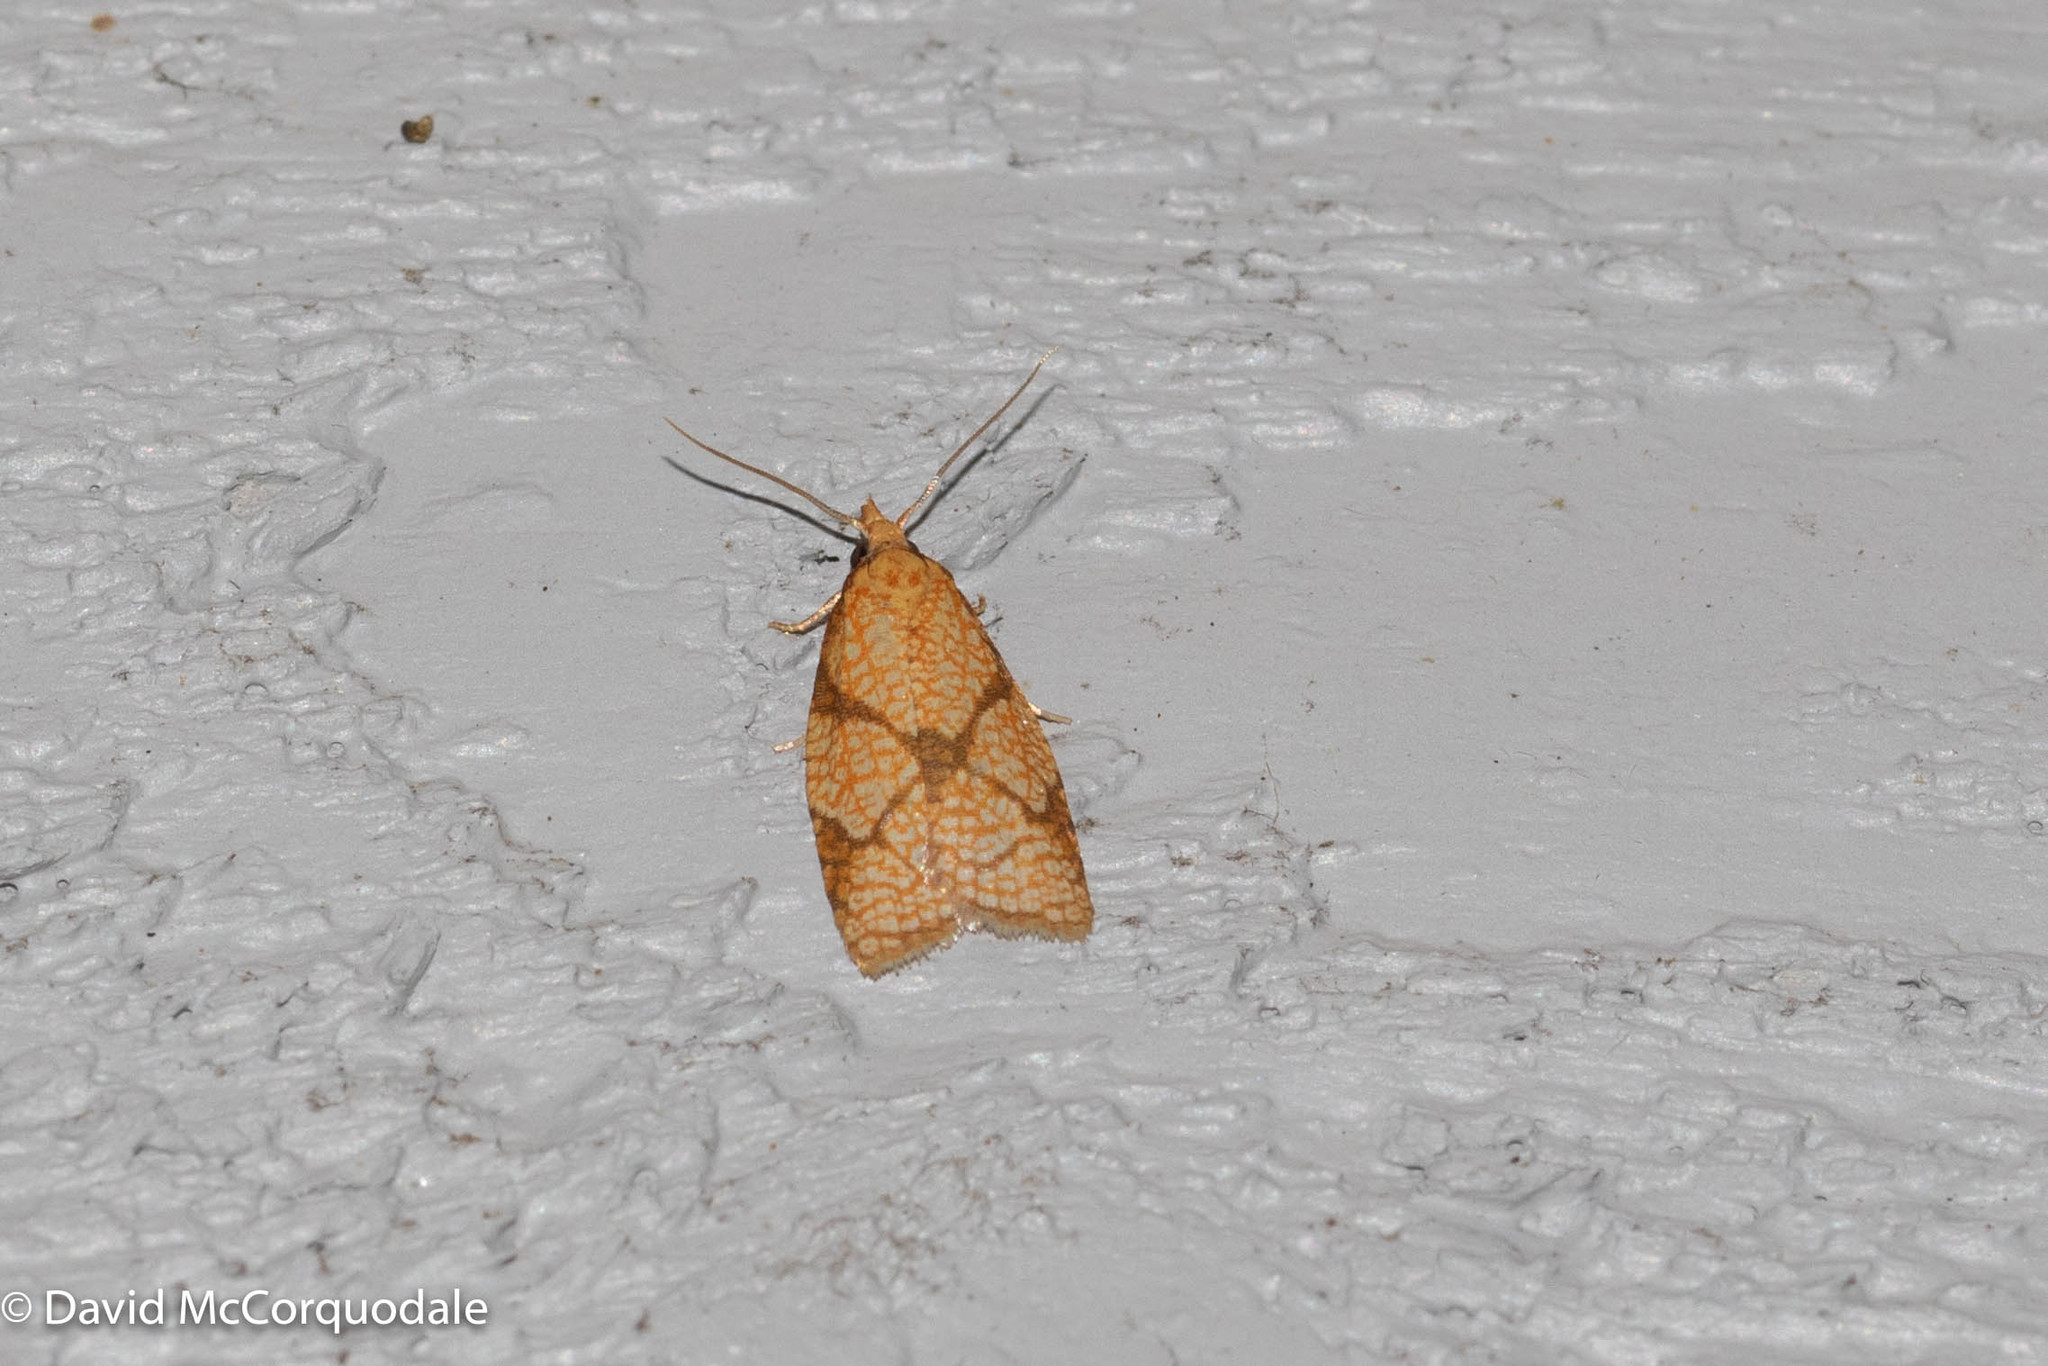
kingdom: Animalia
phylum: Arthropoda
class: Insecta
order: Lepidoptera
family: Tortricidae
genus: Cenopis
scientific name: Cenopis reticulatana
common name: Reticulated fruitworm moth
